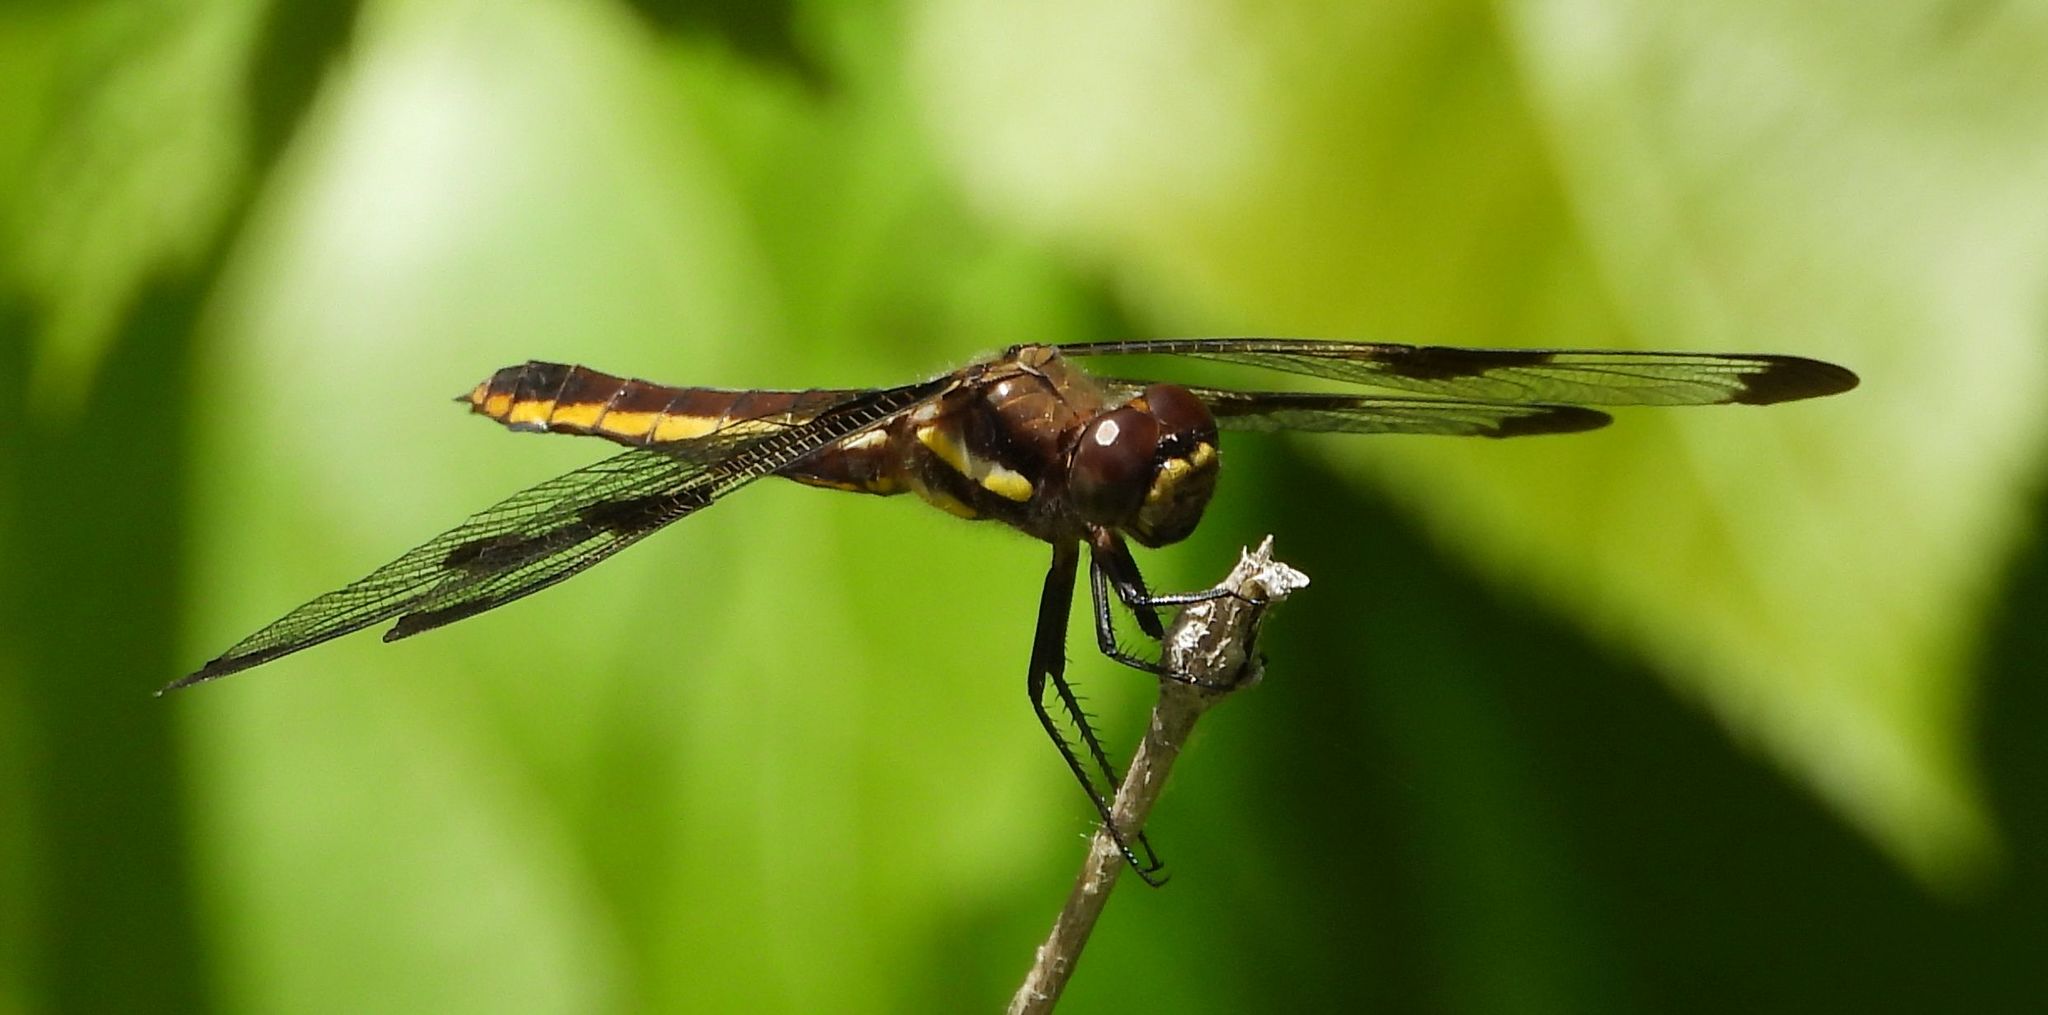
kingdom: Animalia
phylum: Arthropoda
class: Insecta
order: Odonata
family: Libellulidae
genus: Libellula
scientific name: Libellula pulchella
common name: Twelve-spotted skimmer
